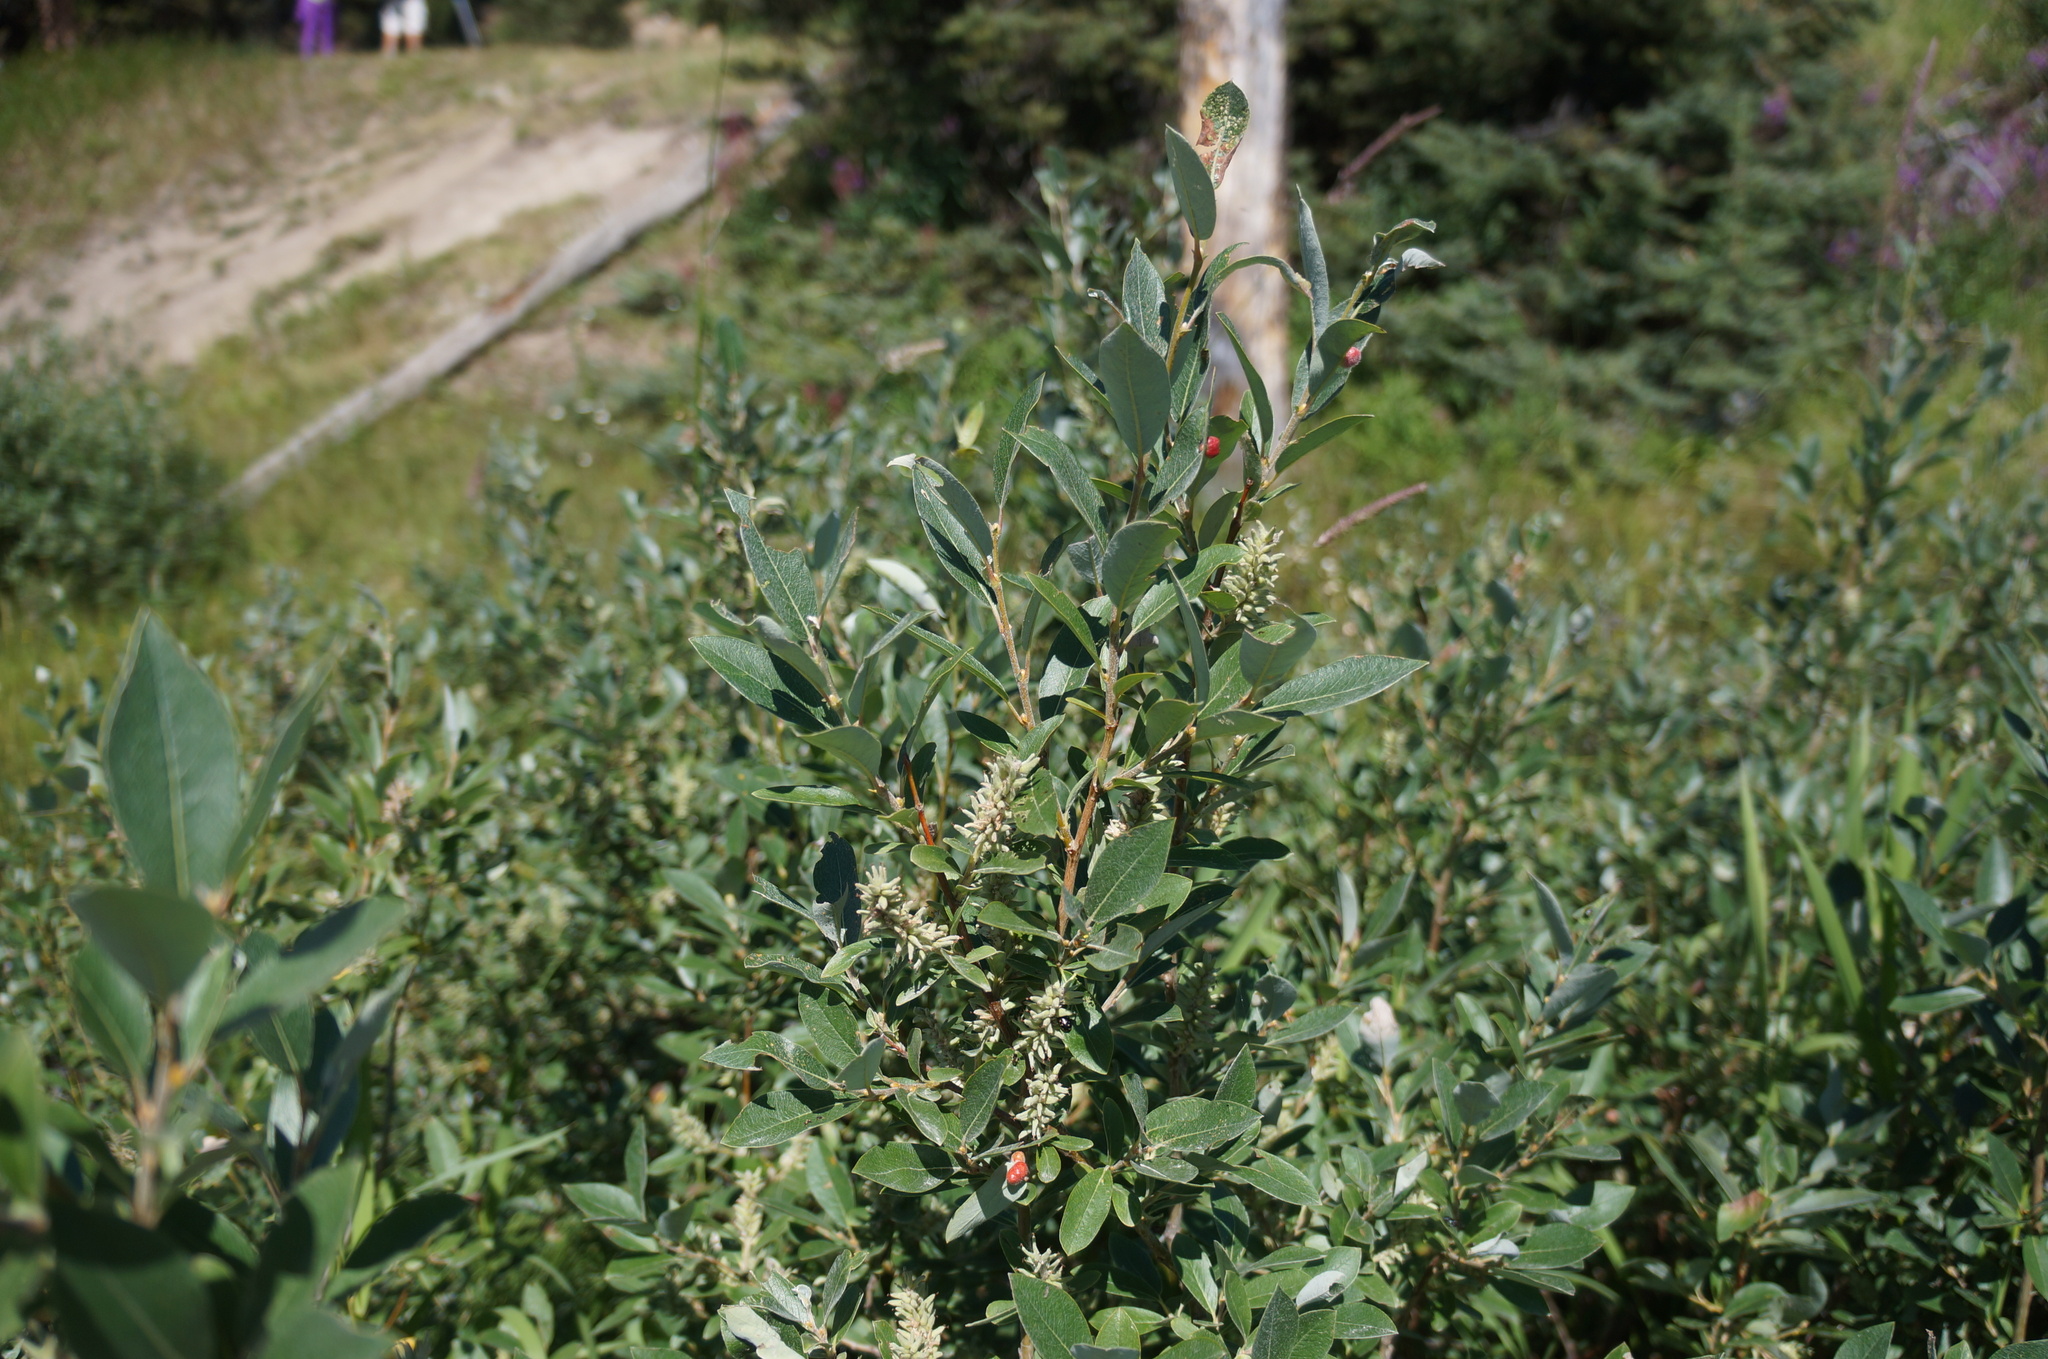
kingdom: Plantae
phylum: Tracheophyta
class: Magnoliopsida
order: Malpighiales
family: Salicaceae
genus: Salix
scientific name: Salix glauca
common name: Glaucous willow
